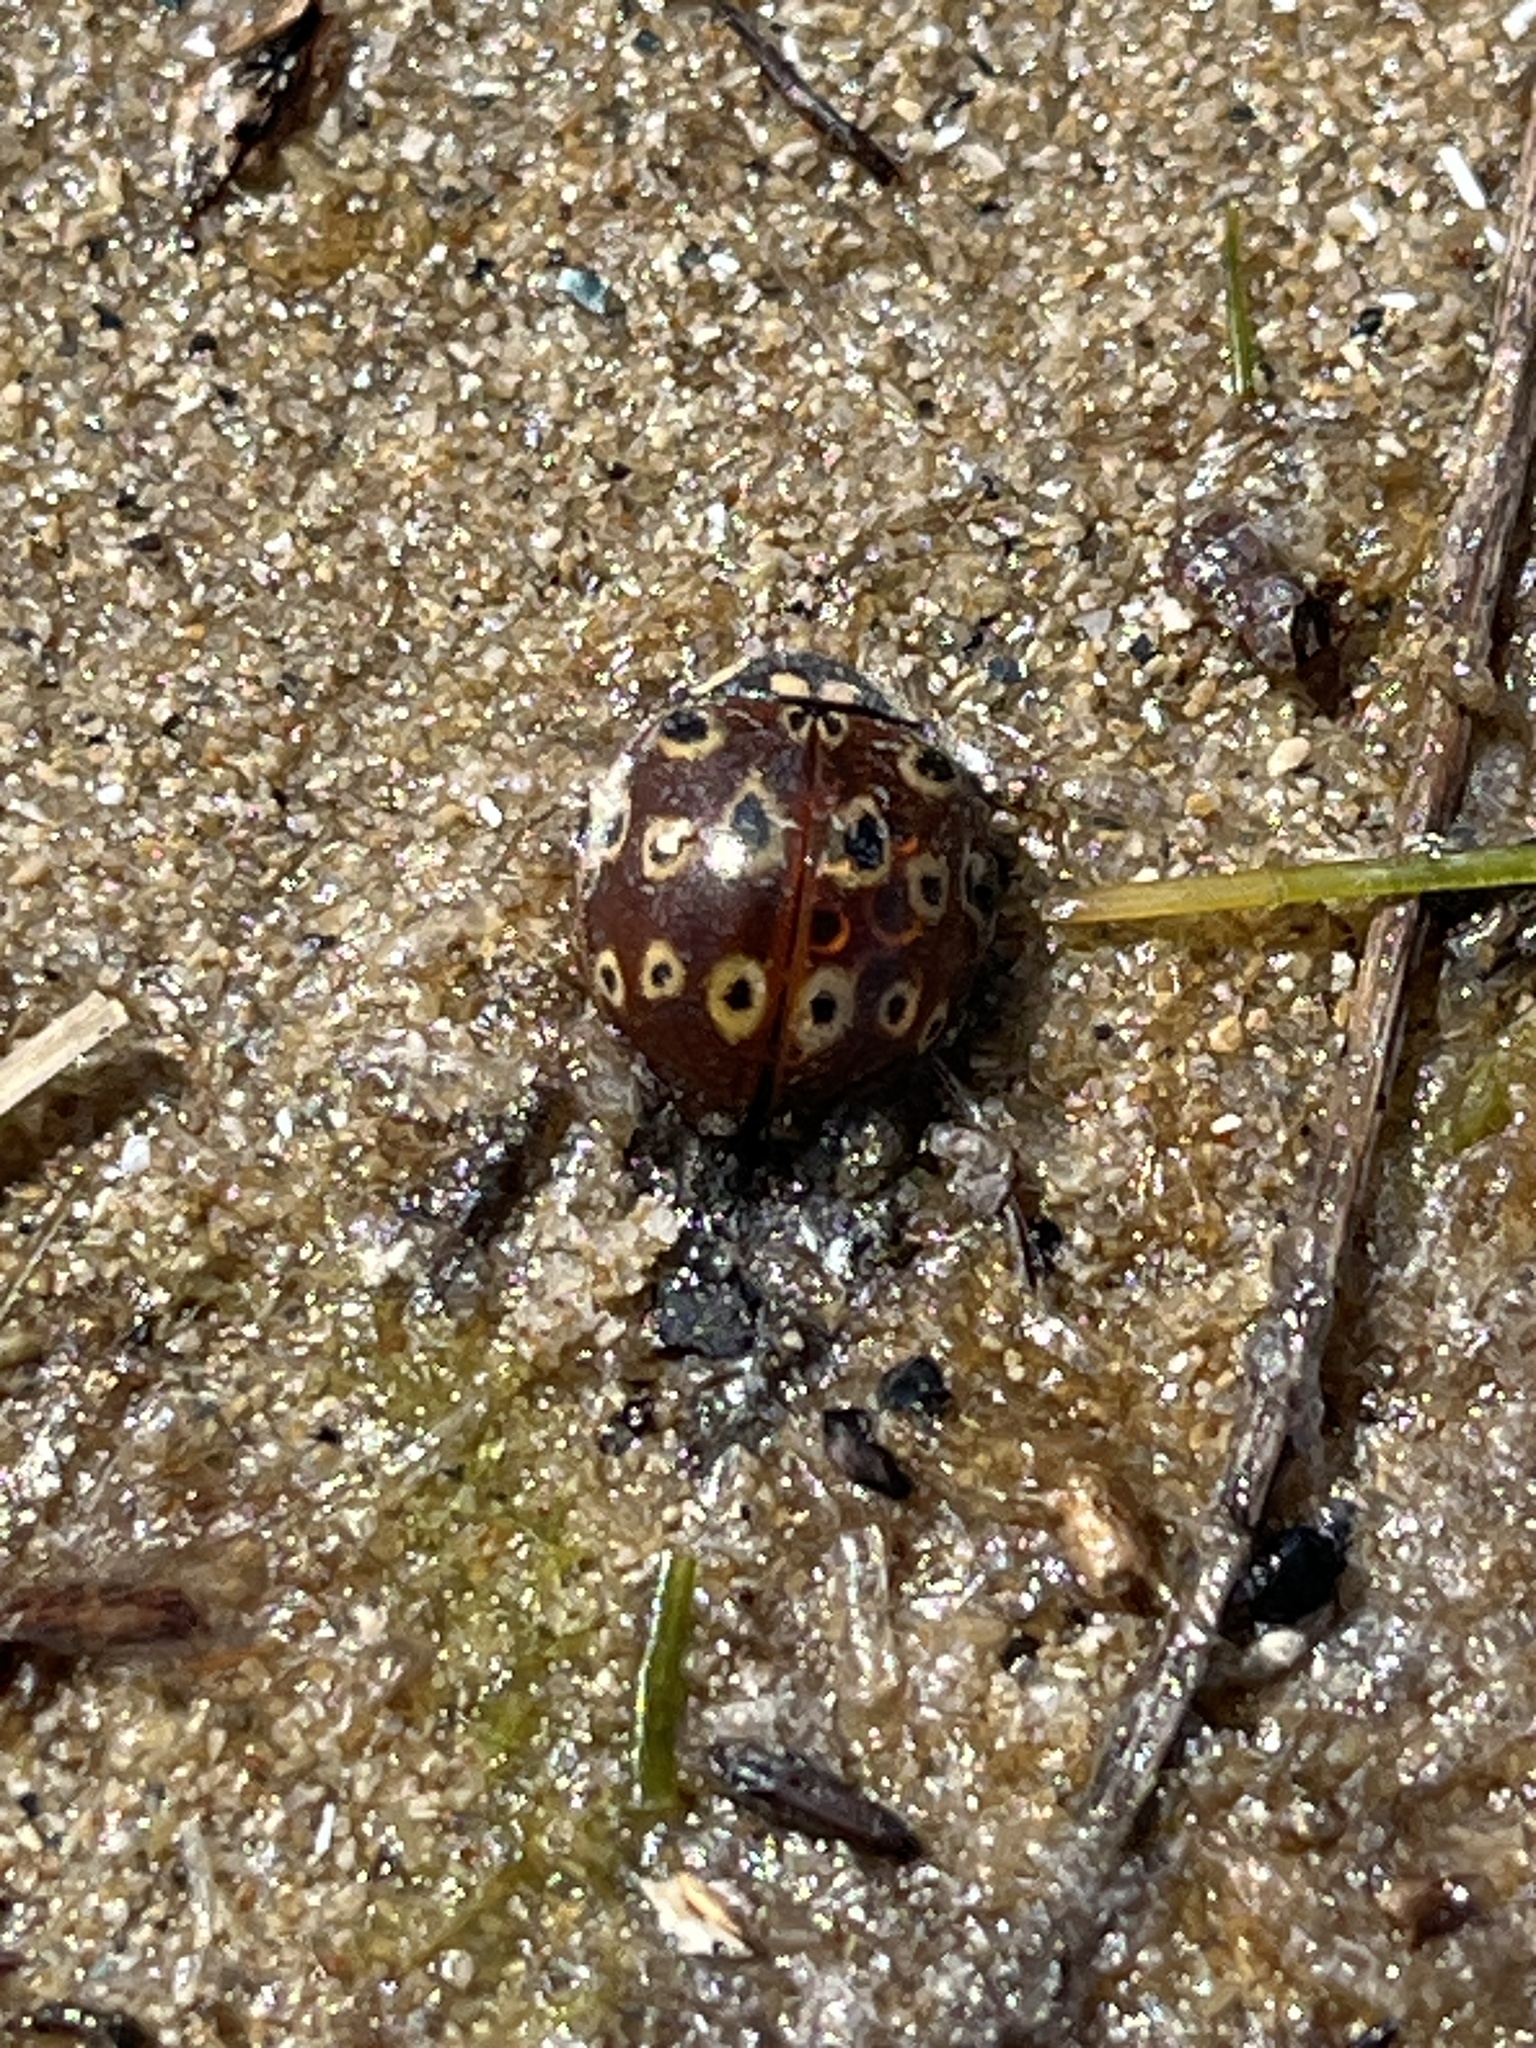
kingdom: Animalia
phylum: Arthropoda
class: Insecta
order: Coleoptera
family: Coccinellidae
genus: Anatis
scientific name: Anatis mali
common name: Eye-spotted lady beetle
